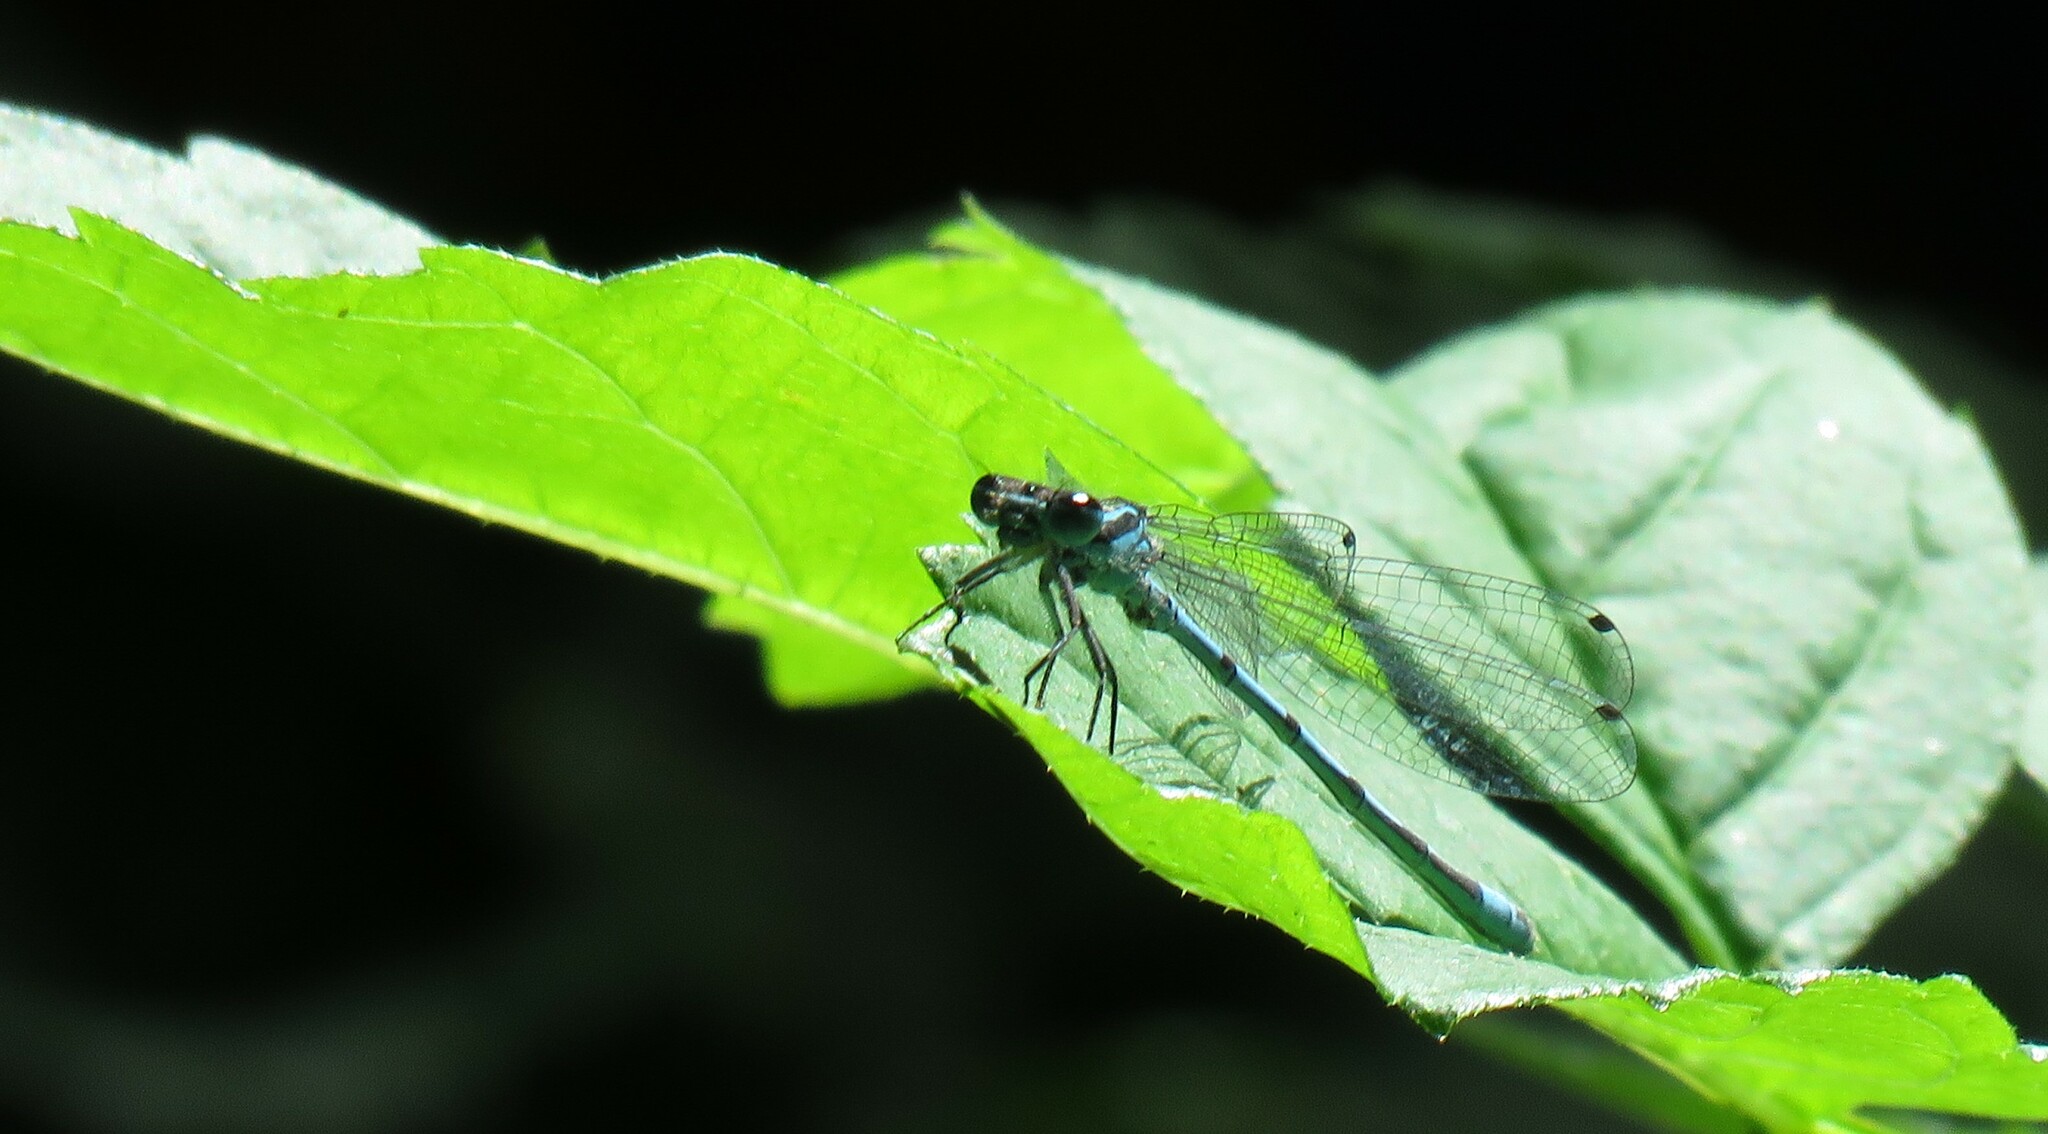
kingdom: Animalia
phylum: Arthropoda
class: Insecta
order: Odonata
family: Coenagrionidae
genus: Coenagrion
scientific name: Coenagrion puella
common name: Azure damselfly
